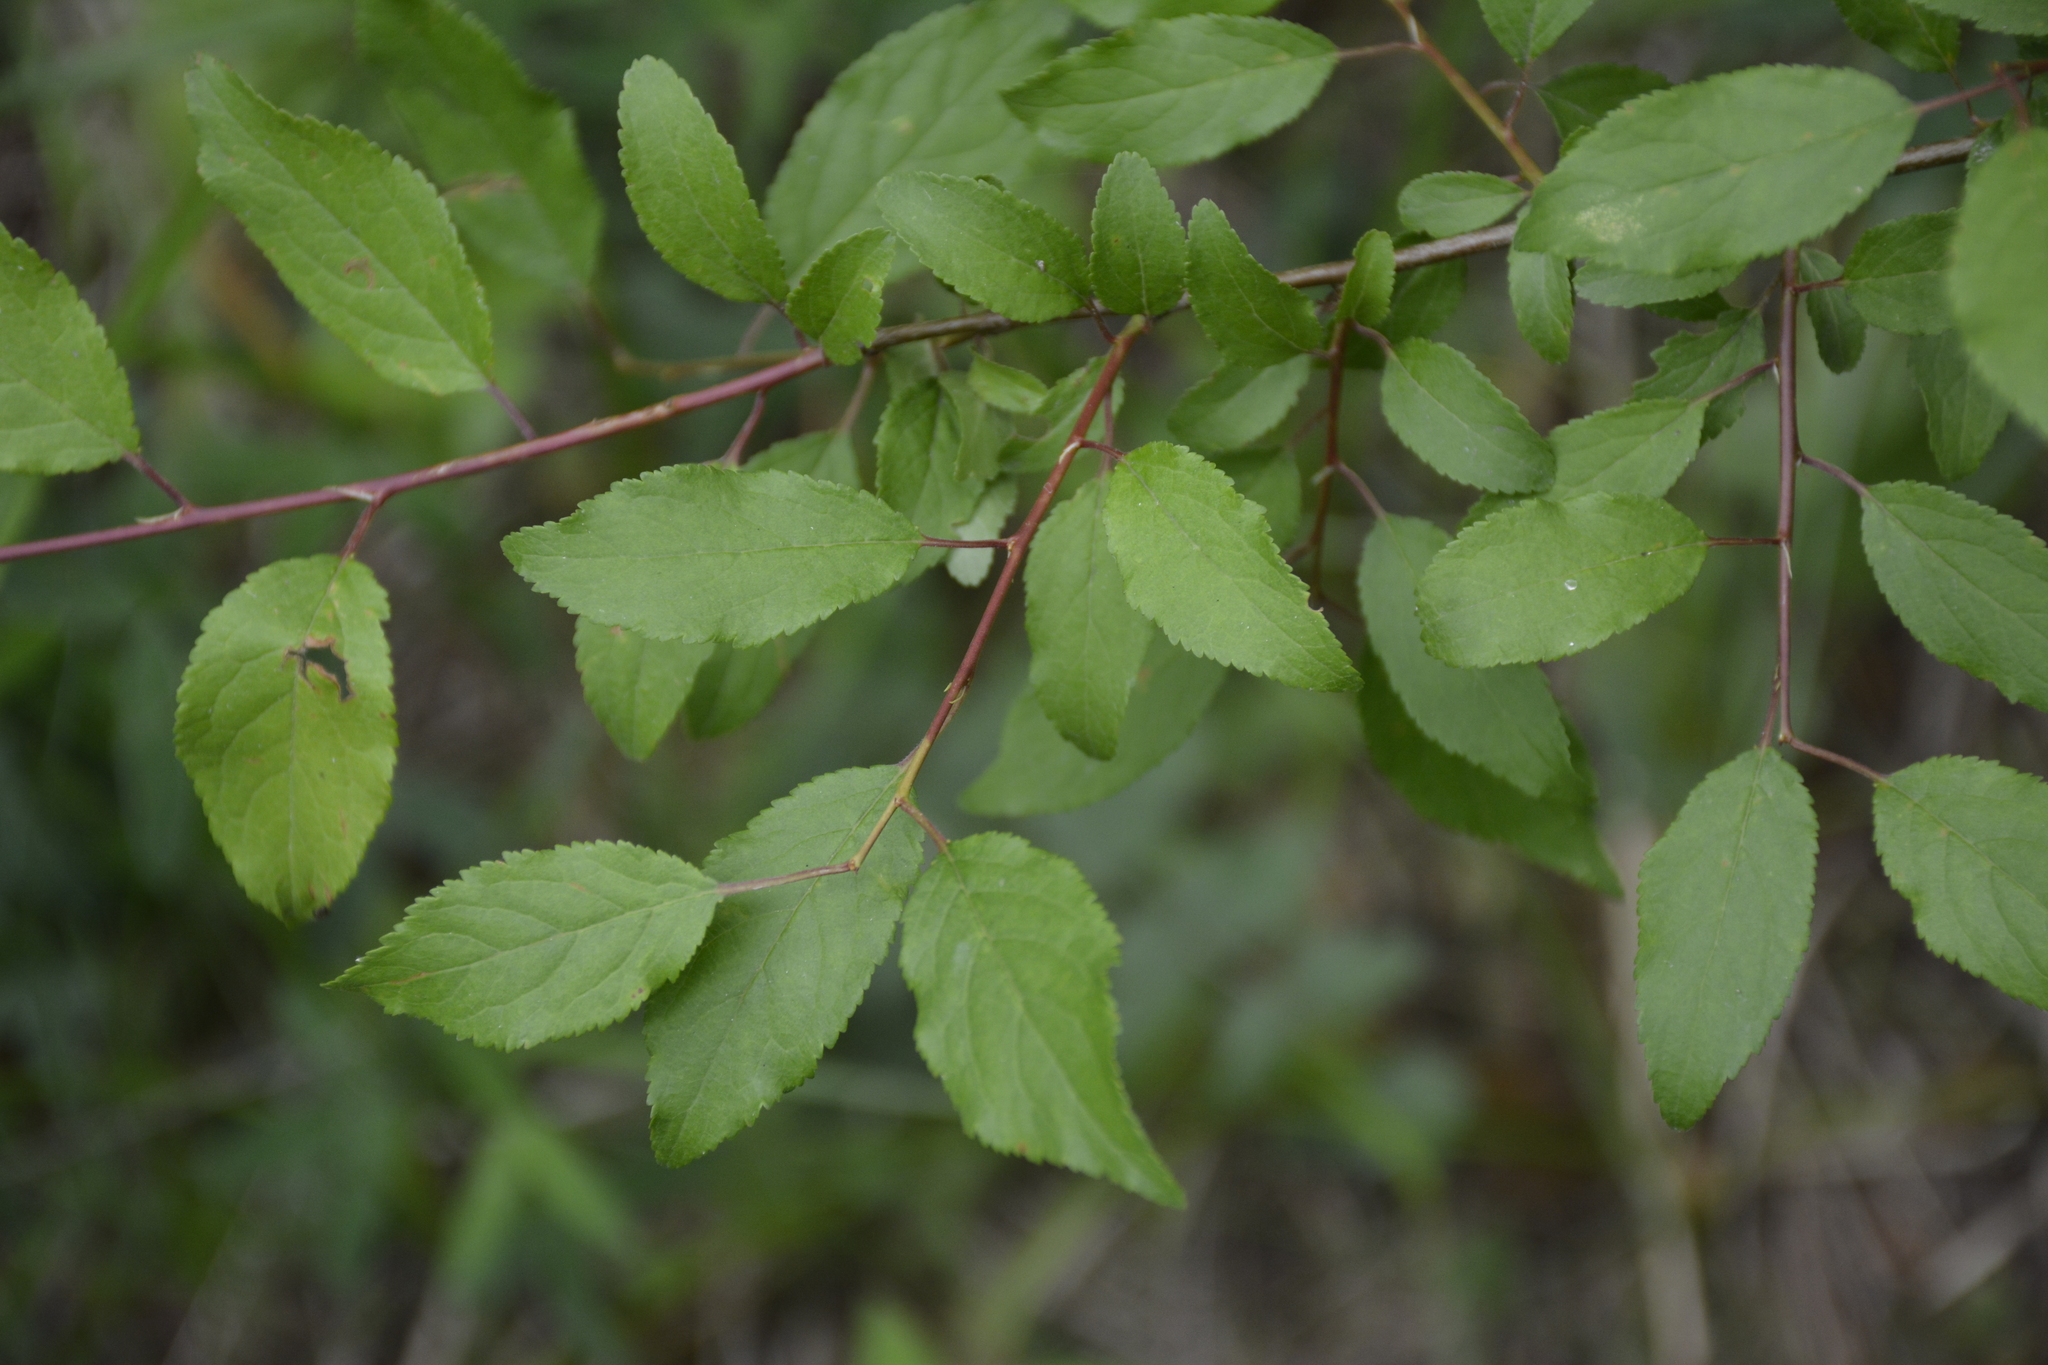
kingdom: Plantae
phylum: Tracheophyta
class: Magnoliopsida
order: Rosales
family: Rosaceae
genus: Prunus
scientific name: Prunus cerasifera
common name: Cherry plum
